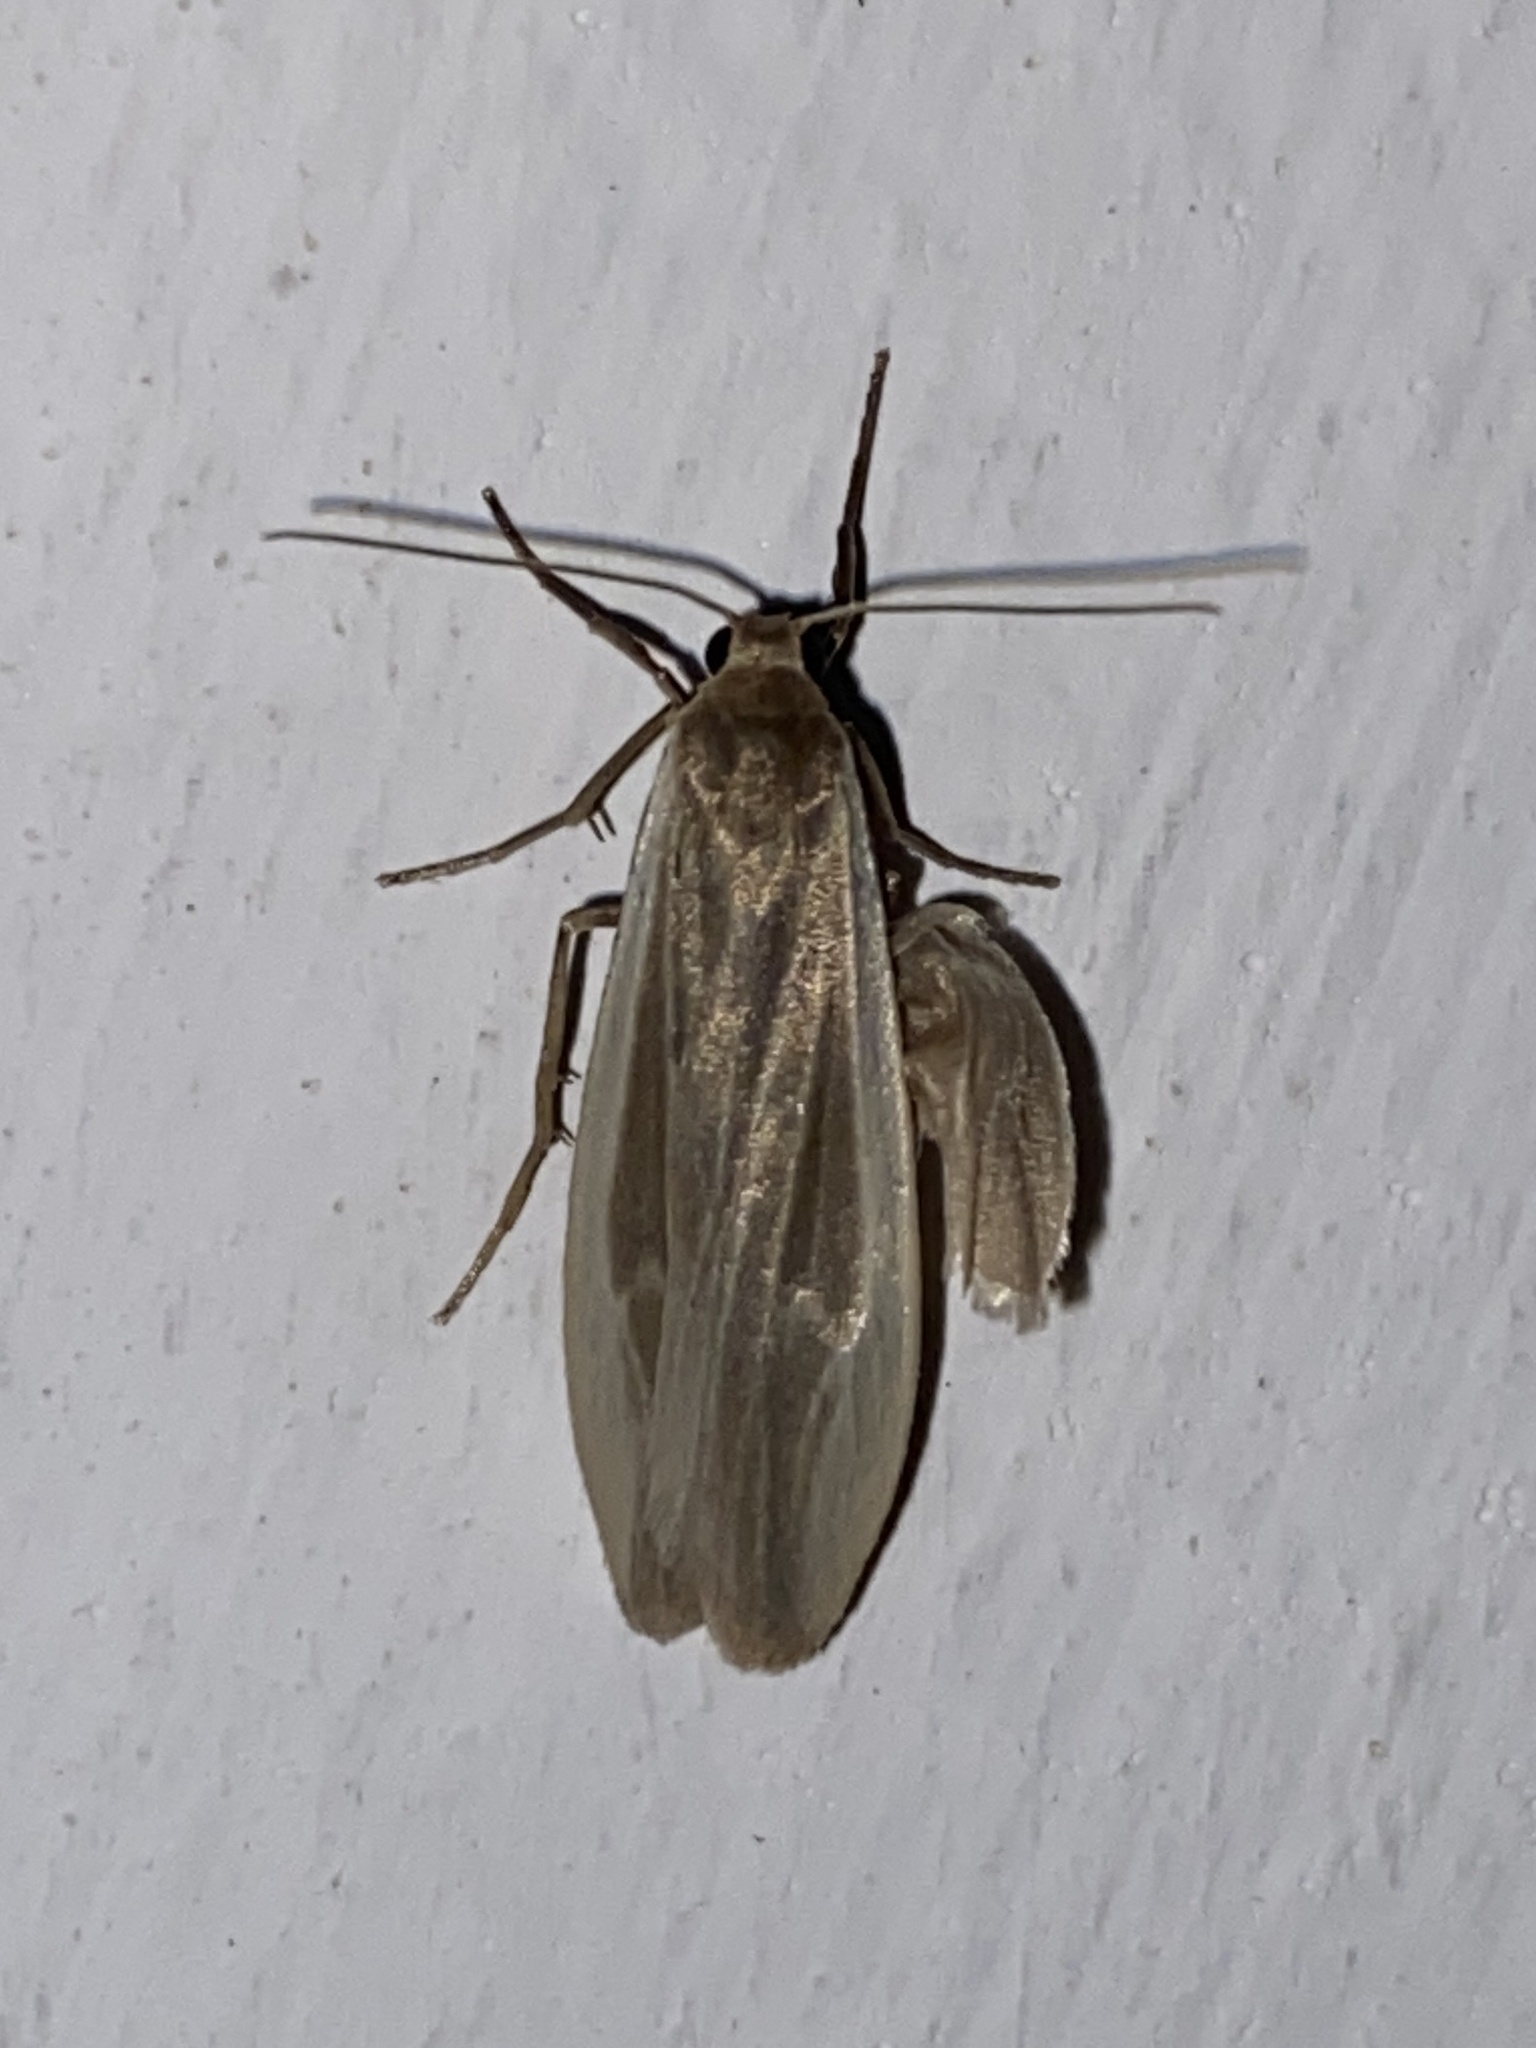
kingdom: Animalia
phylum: Arthropoda
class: Insecta
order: Lepidoptera
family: Erebidae
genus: Indalia
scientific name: Indalia albicosta
